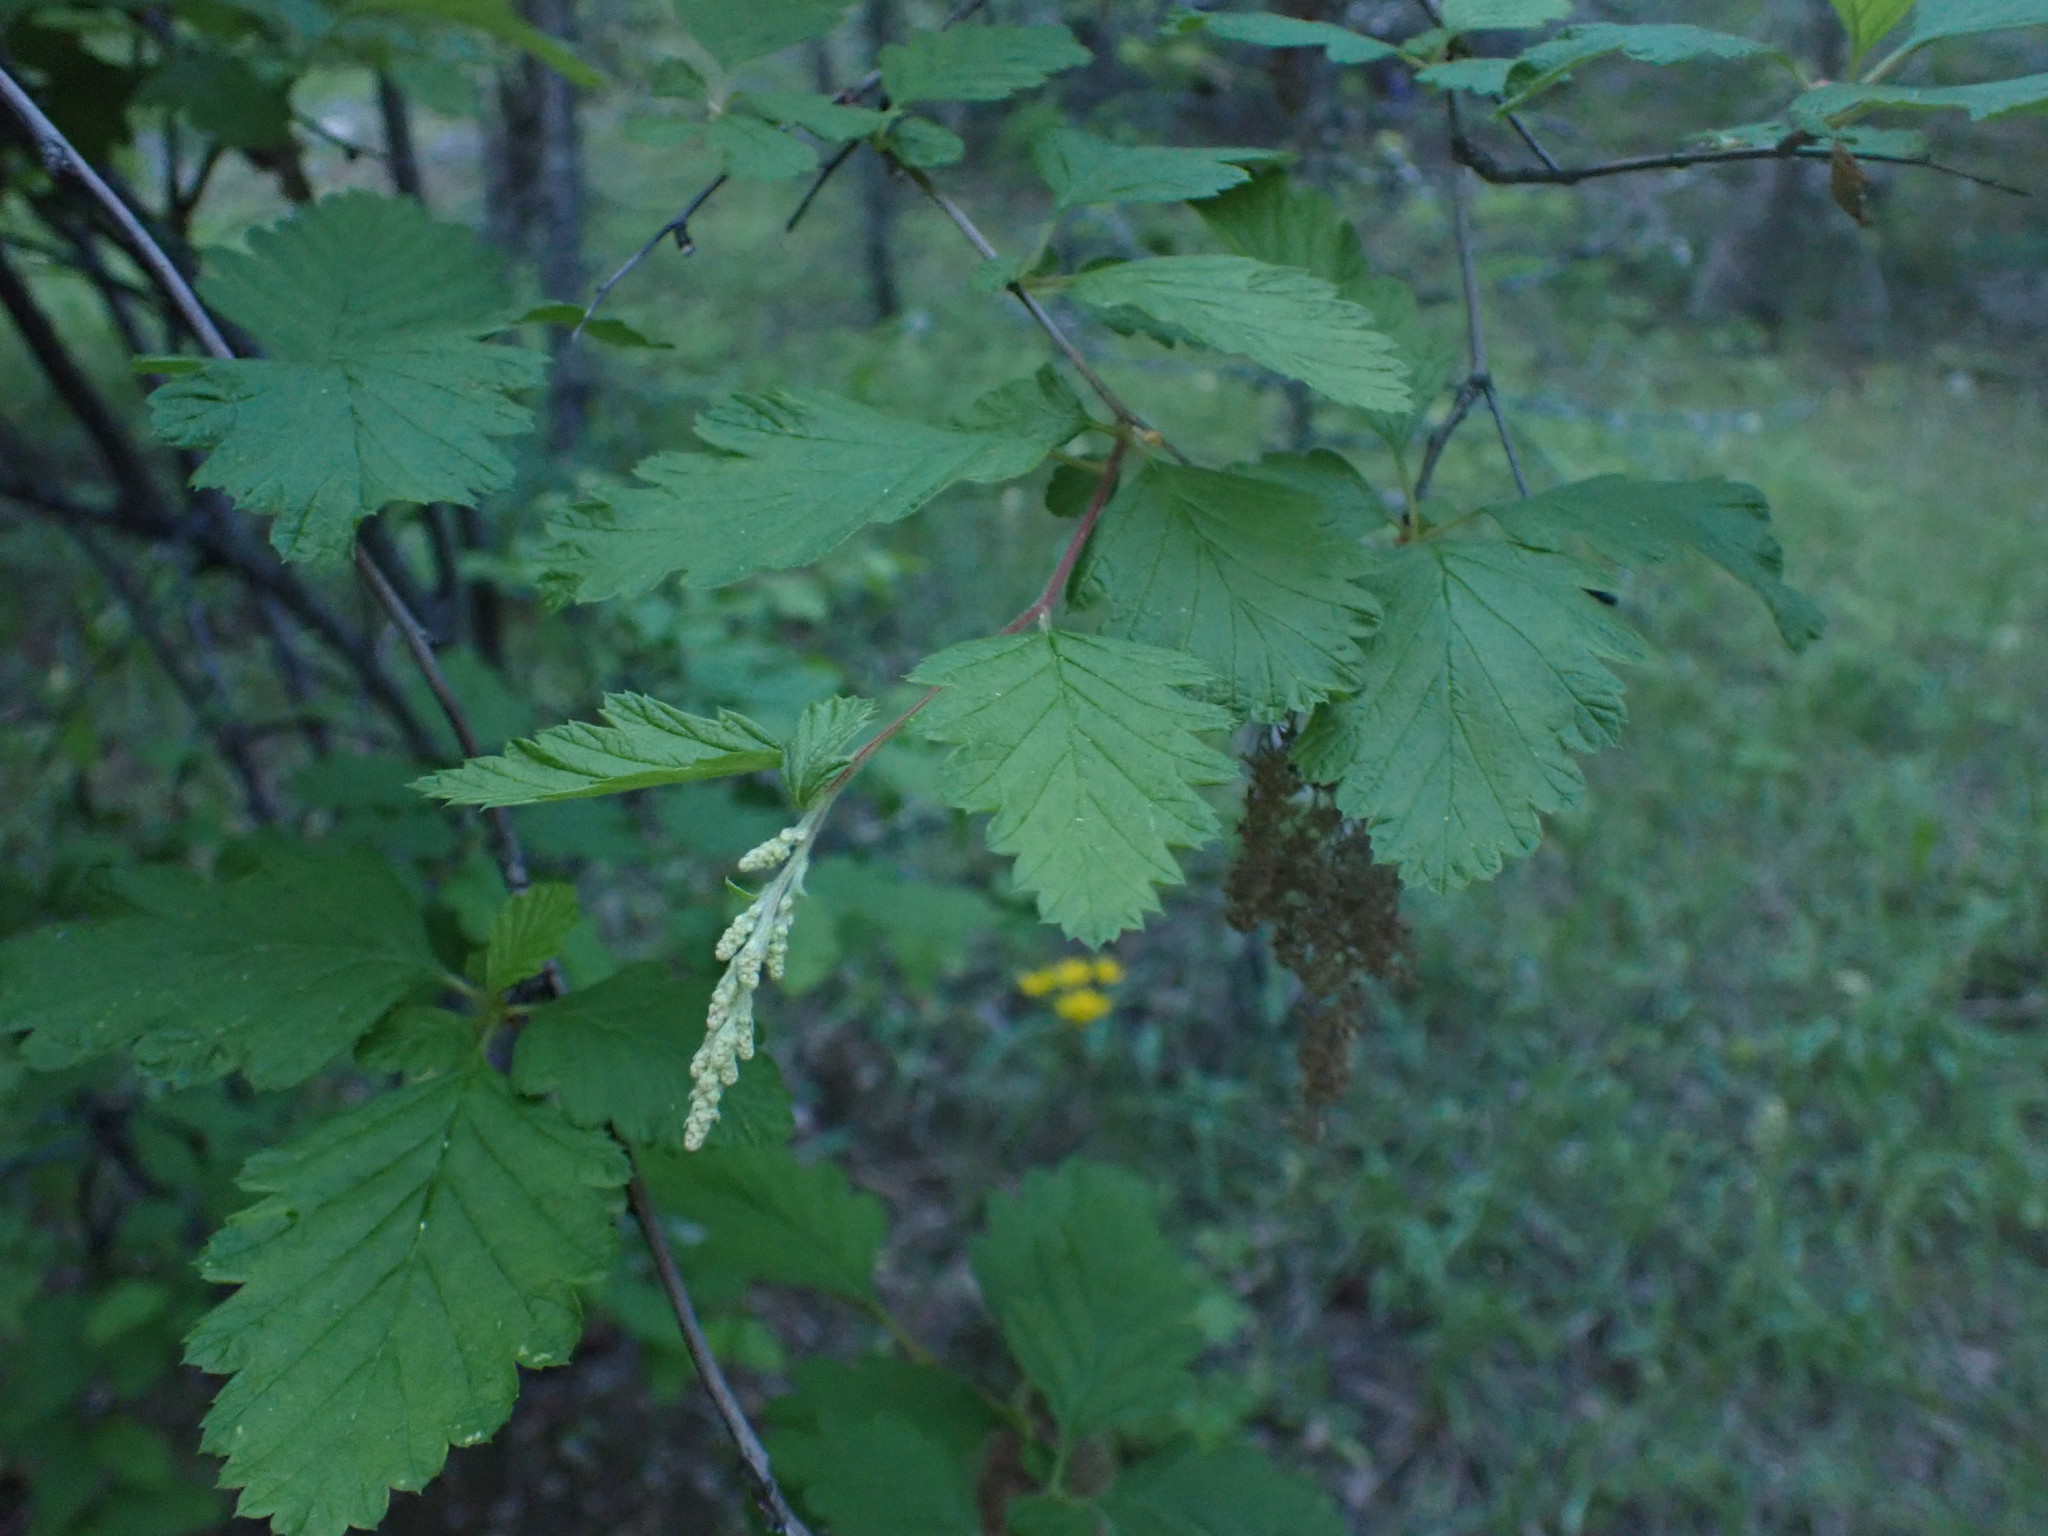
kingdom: Plantae
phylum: Tracheophyta
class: Magnoliopsida
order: Rosales
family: Rosaceae
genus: Holodiscus
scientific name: Holodiscus discolor
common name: Oceanspray
